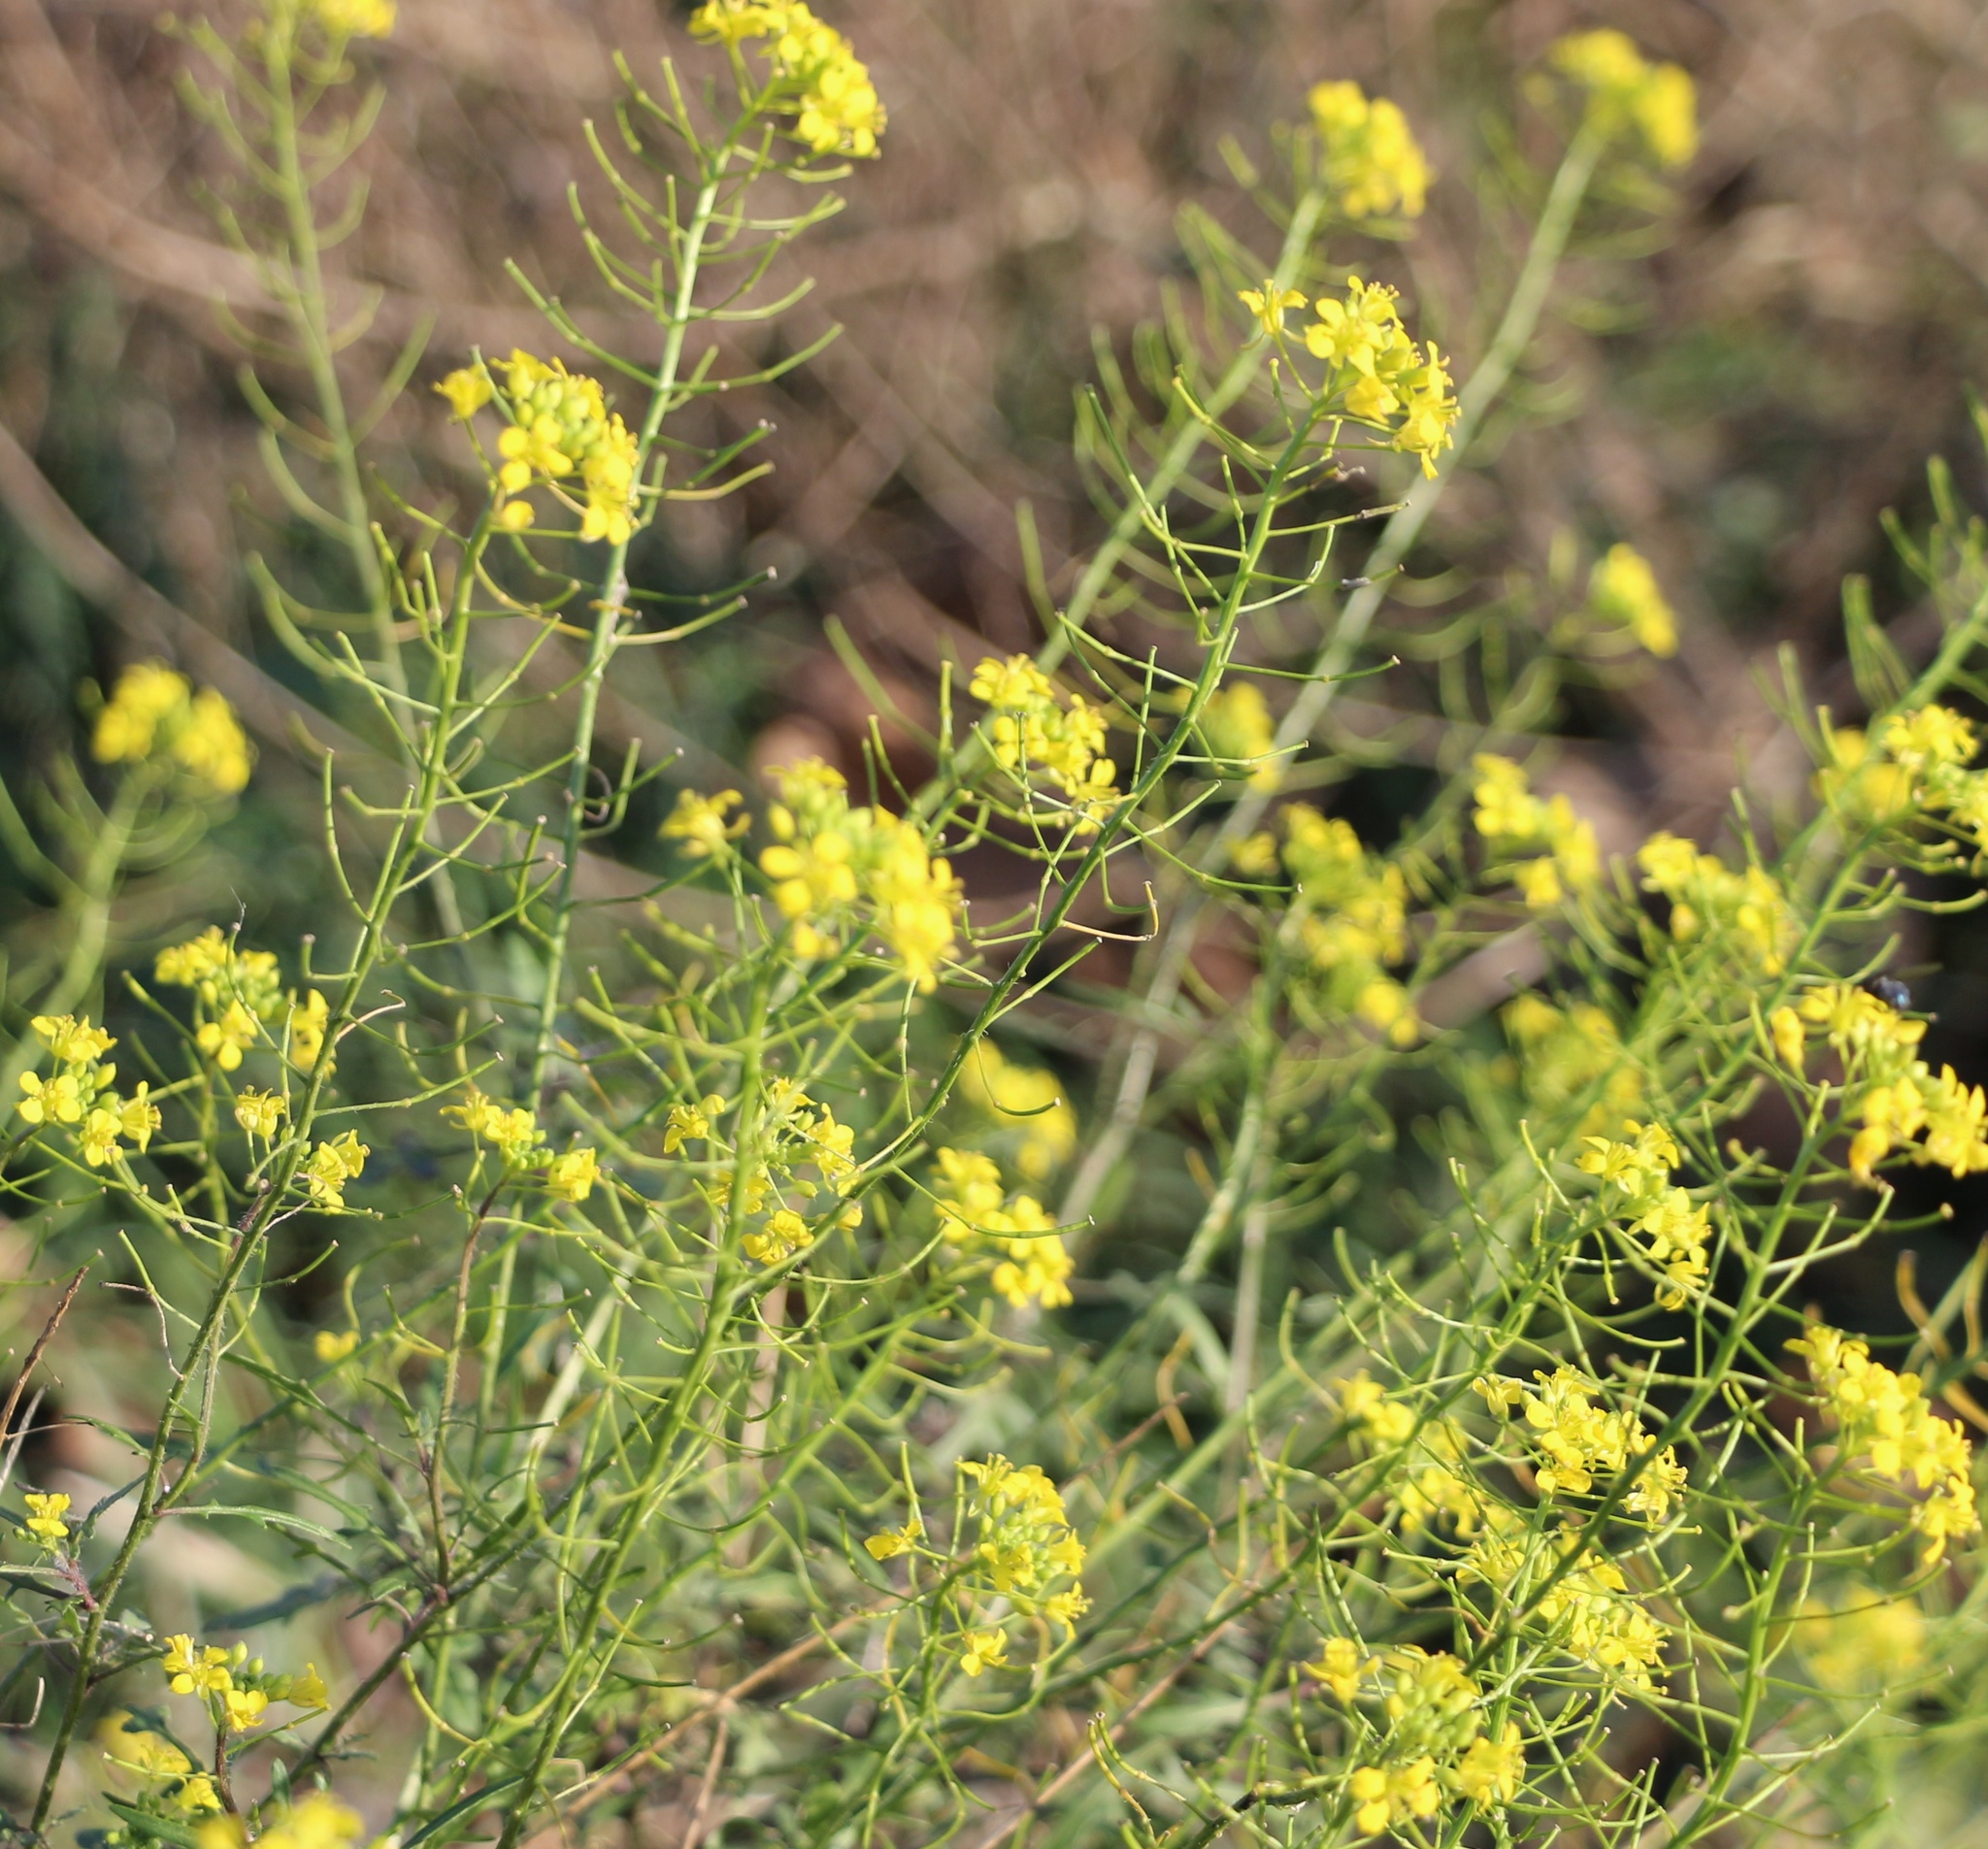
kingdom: Plantae
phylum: Tracheophyta
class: Magnoliopsida
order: Brassicales
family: Brassicaceae
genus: Sisymbrium
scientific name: Sisymbrium loeselii
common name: False london-rocket
